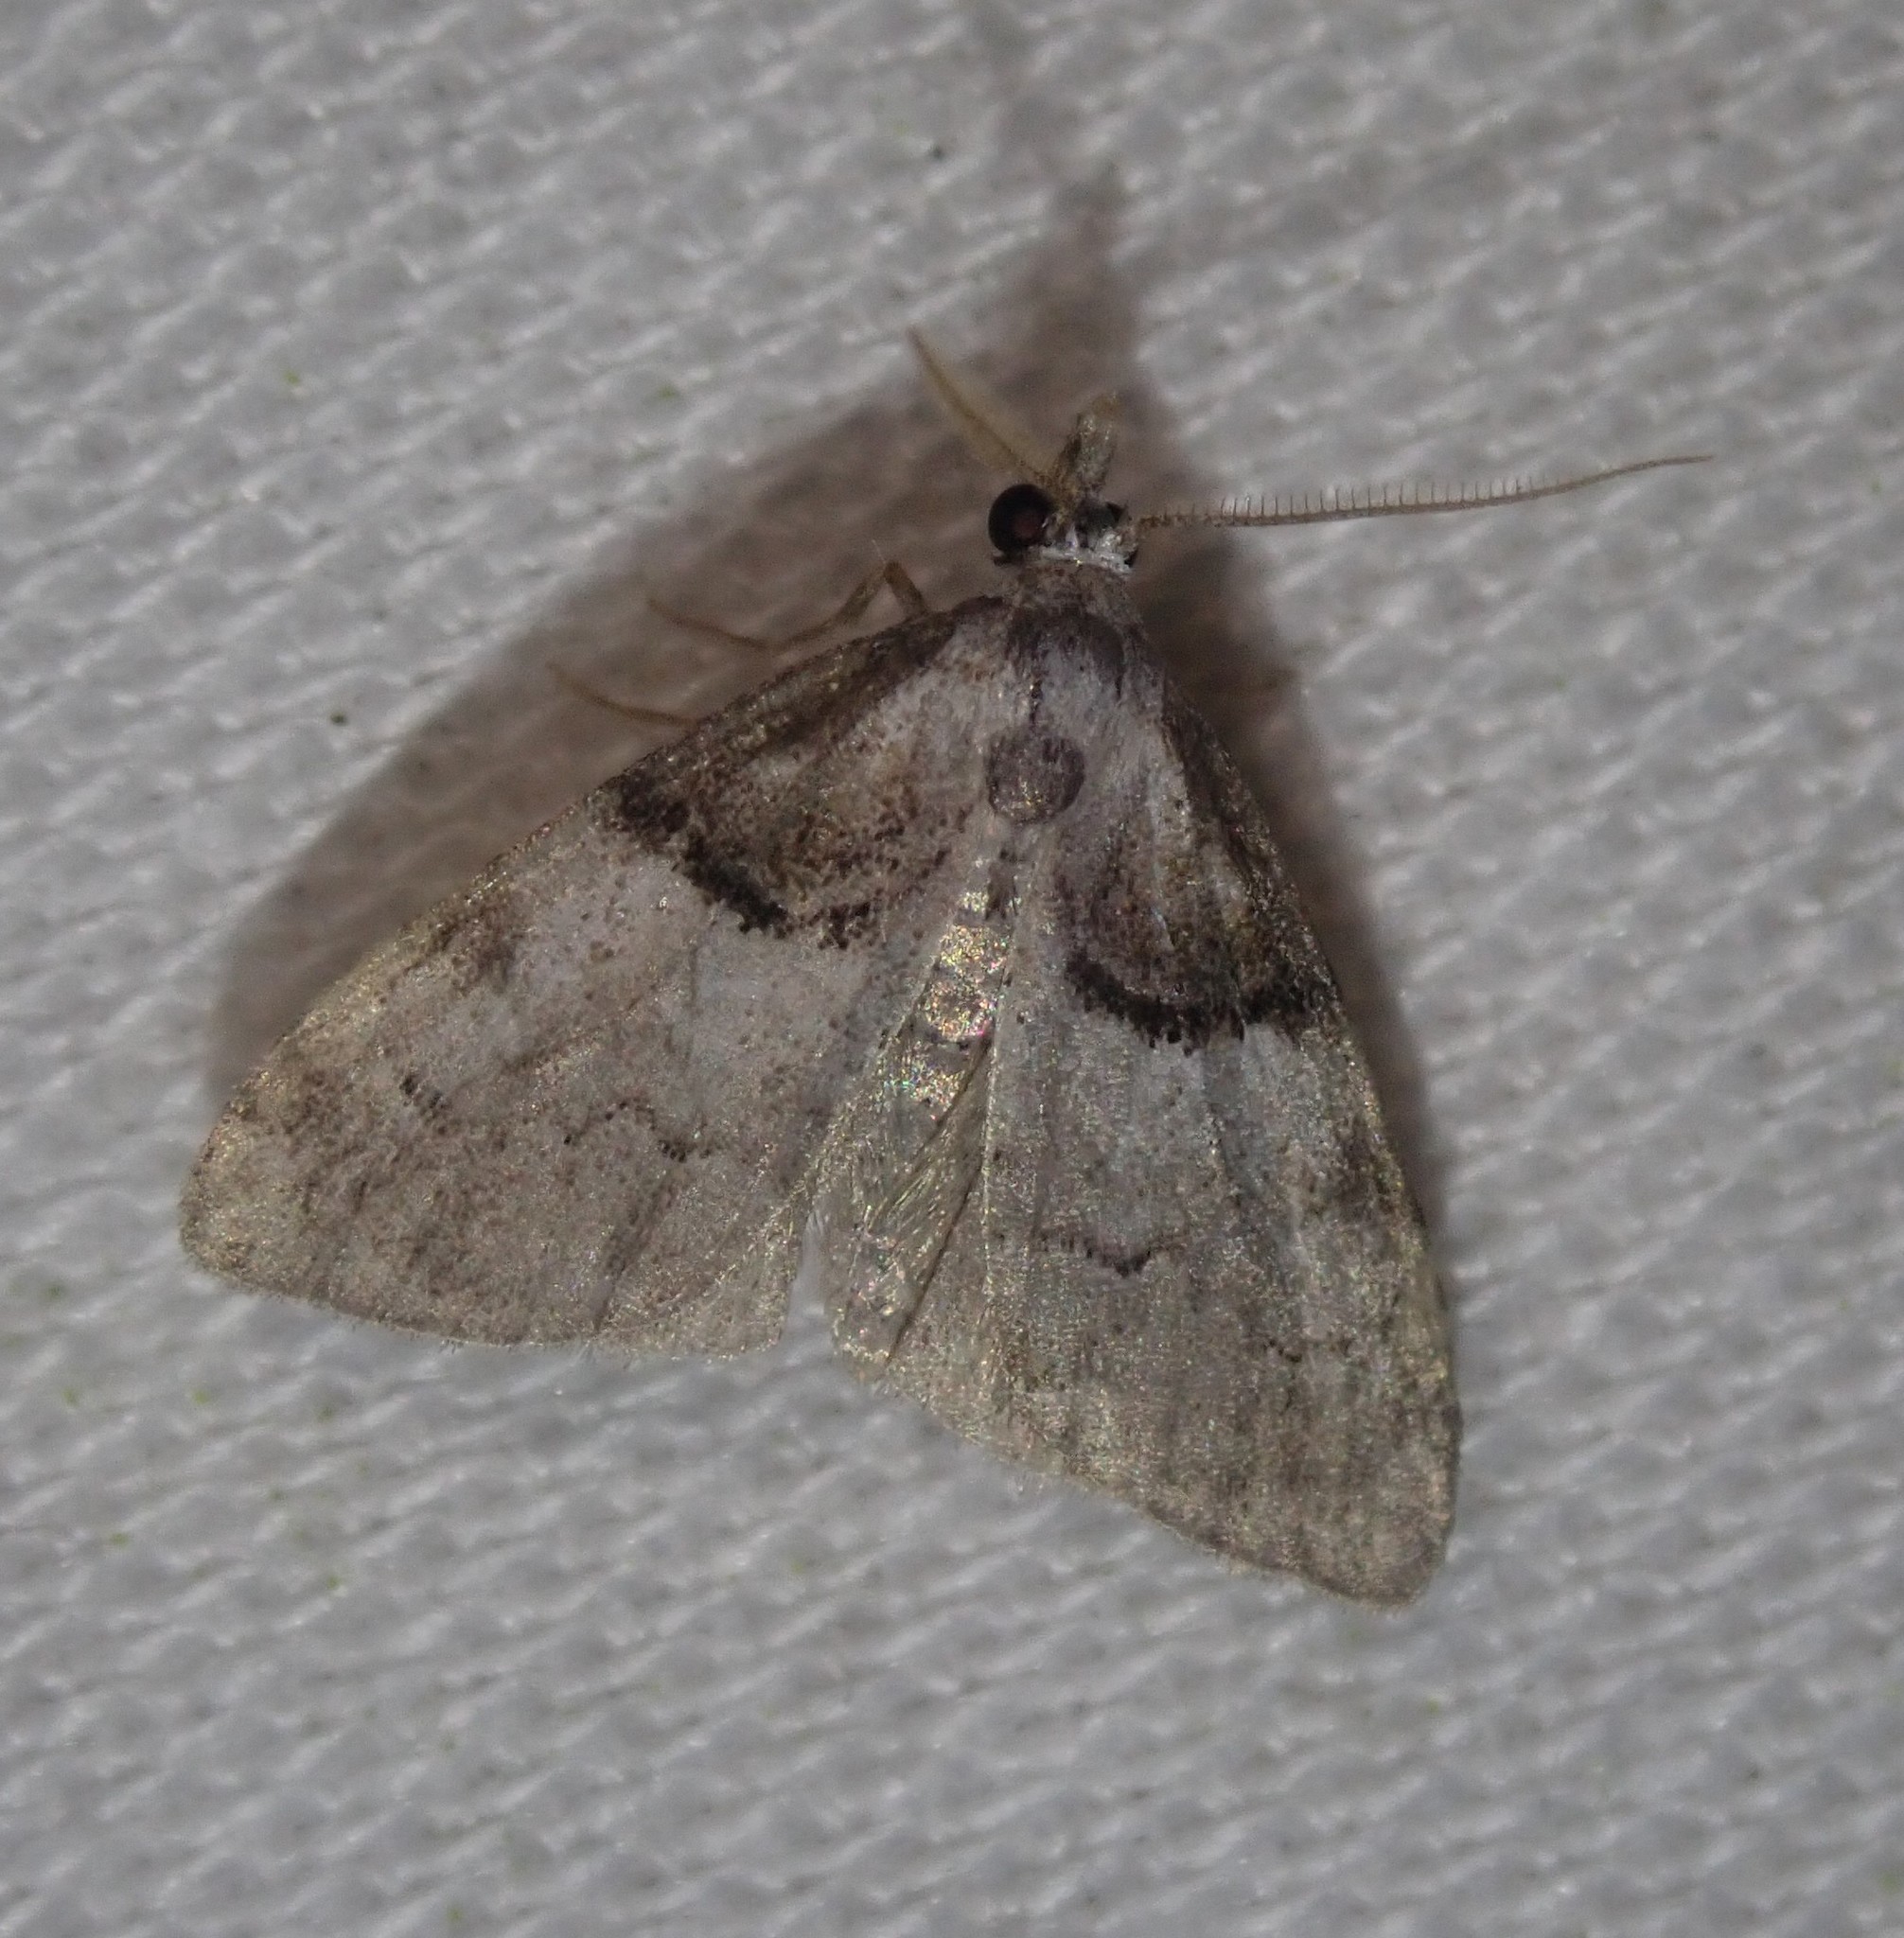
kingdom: Animalia
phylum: Arthropoda
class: Insecta
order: Lepidoptera
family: Nolidae
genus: Nola
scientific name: Nola cucullatella
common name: Short-cloaked moth
